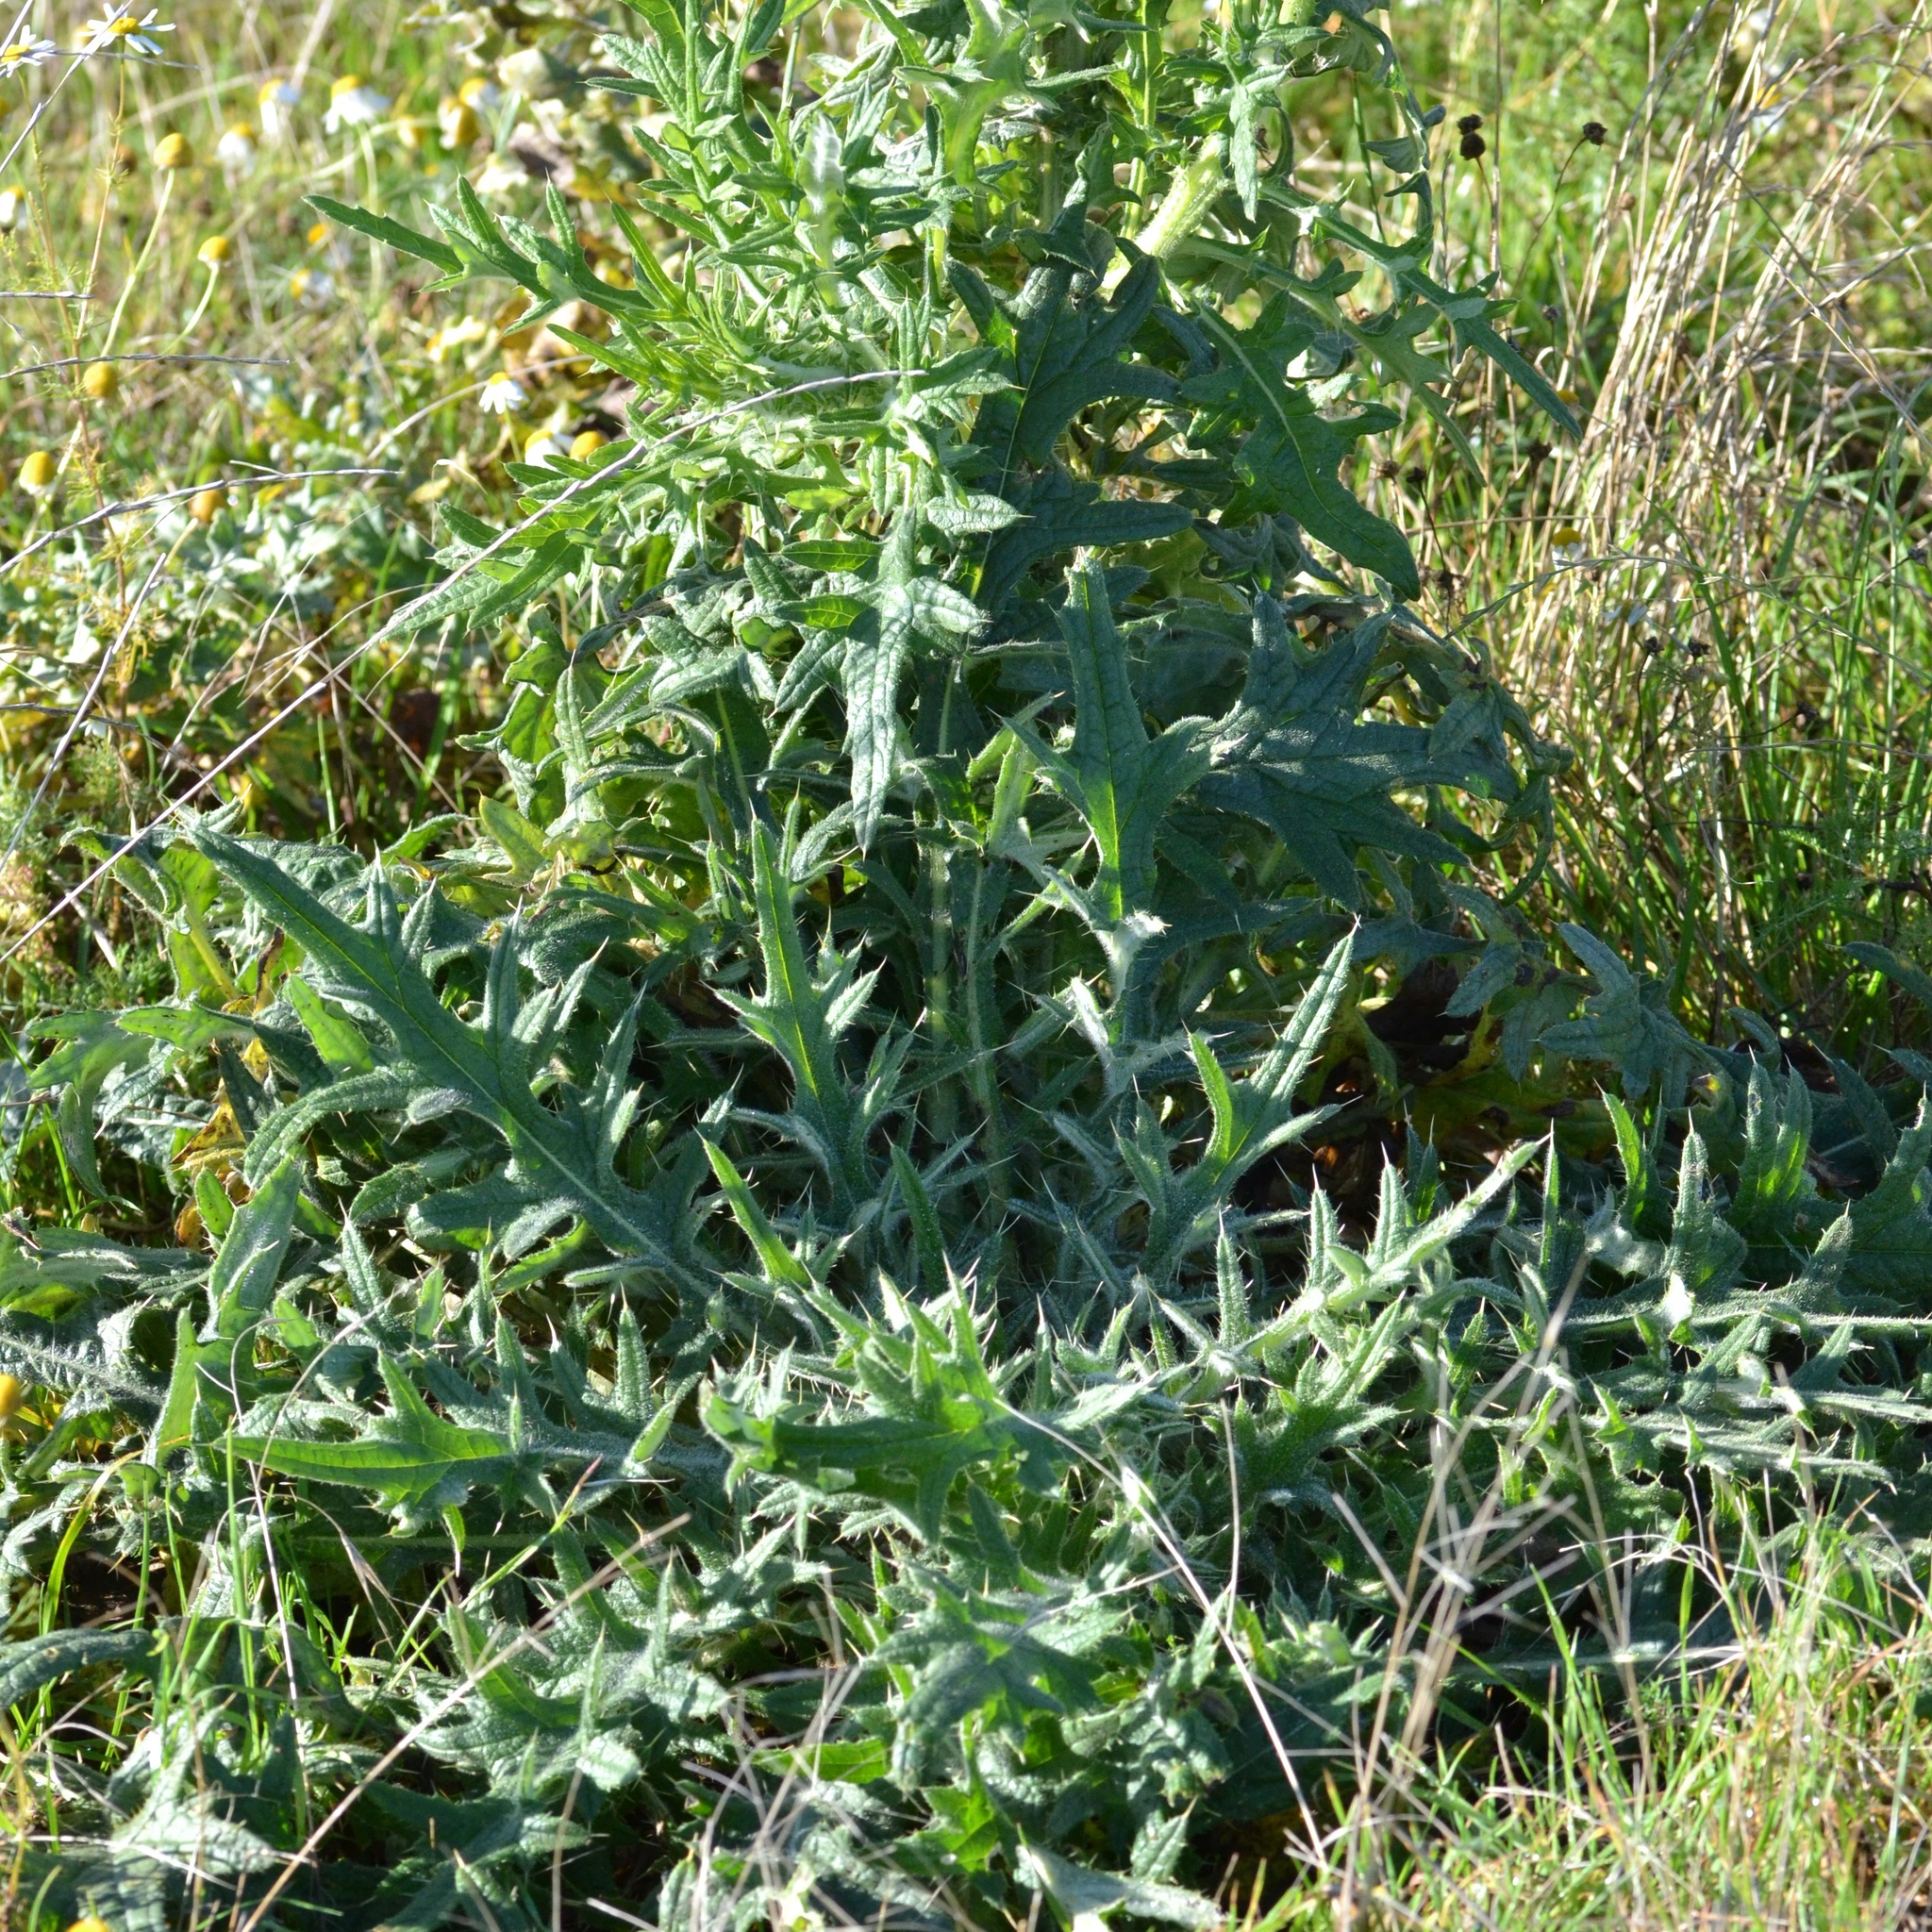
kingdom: Plantae
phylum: Tracheophyta
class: Magnoliopsida
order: Asterales
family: Asteraceae
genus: Cirsium
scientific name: Cirsium vulgare
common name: Bull thistle
